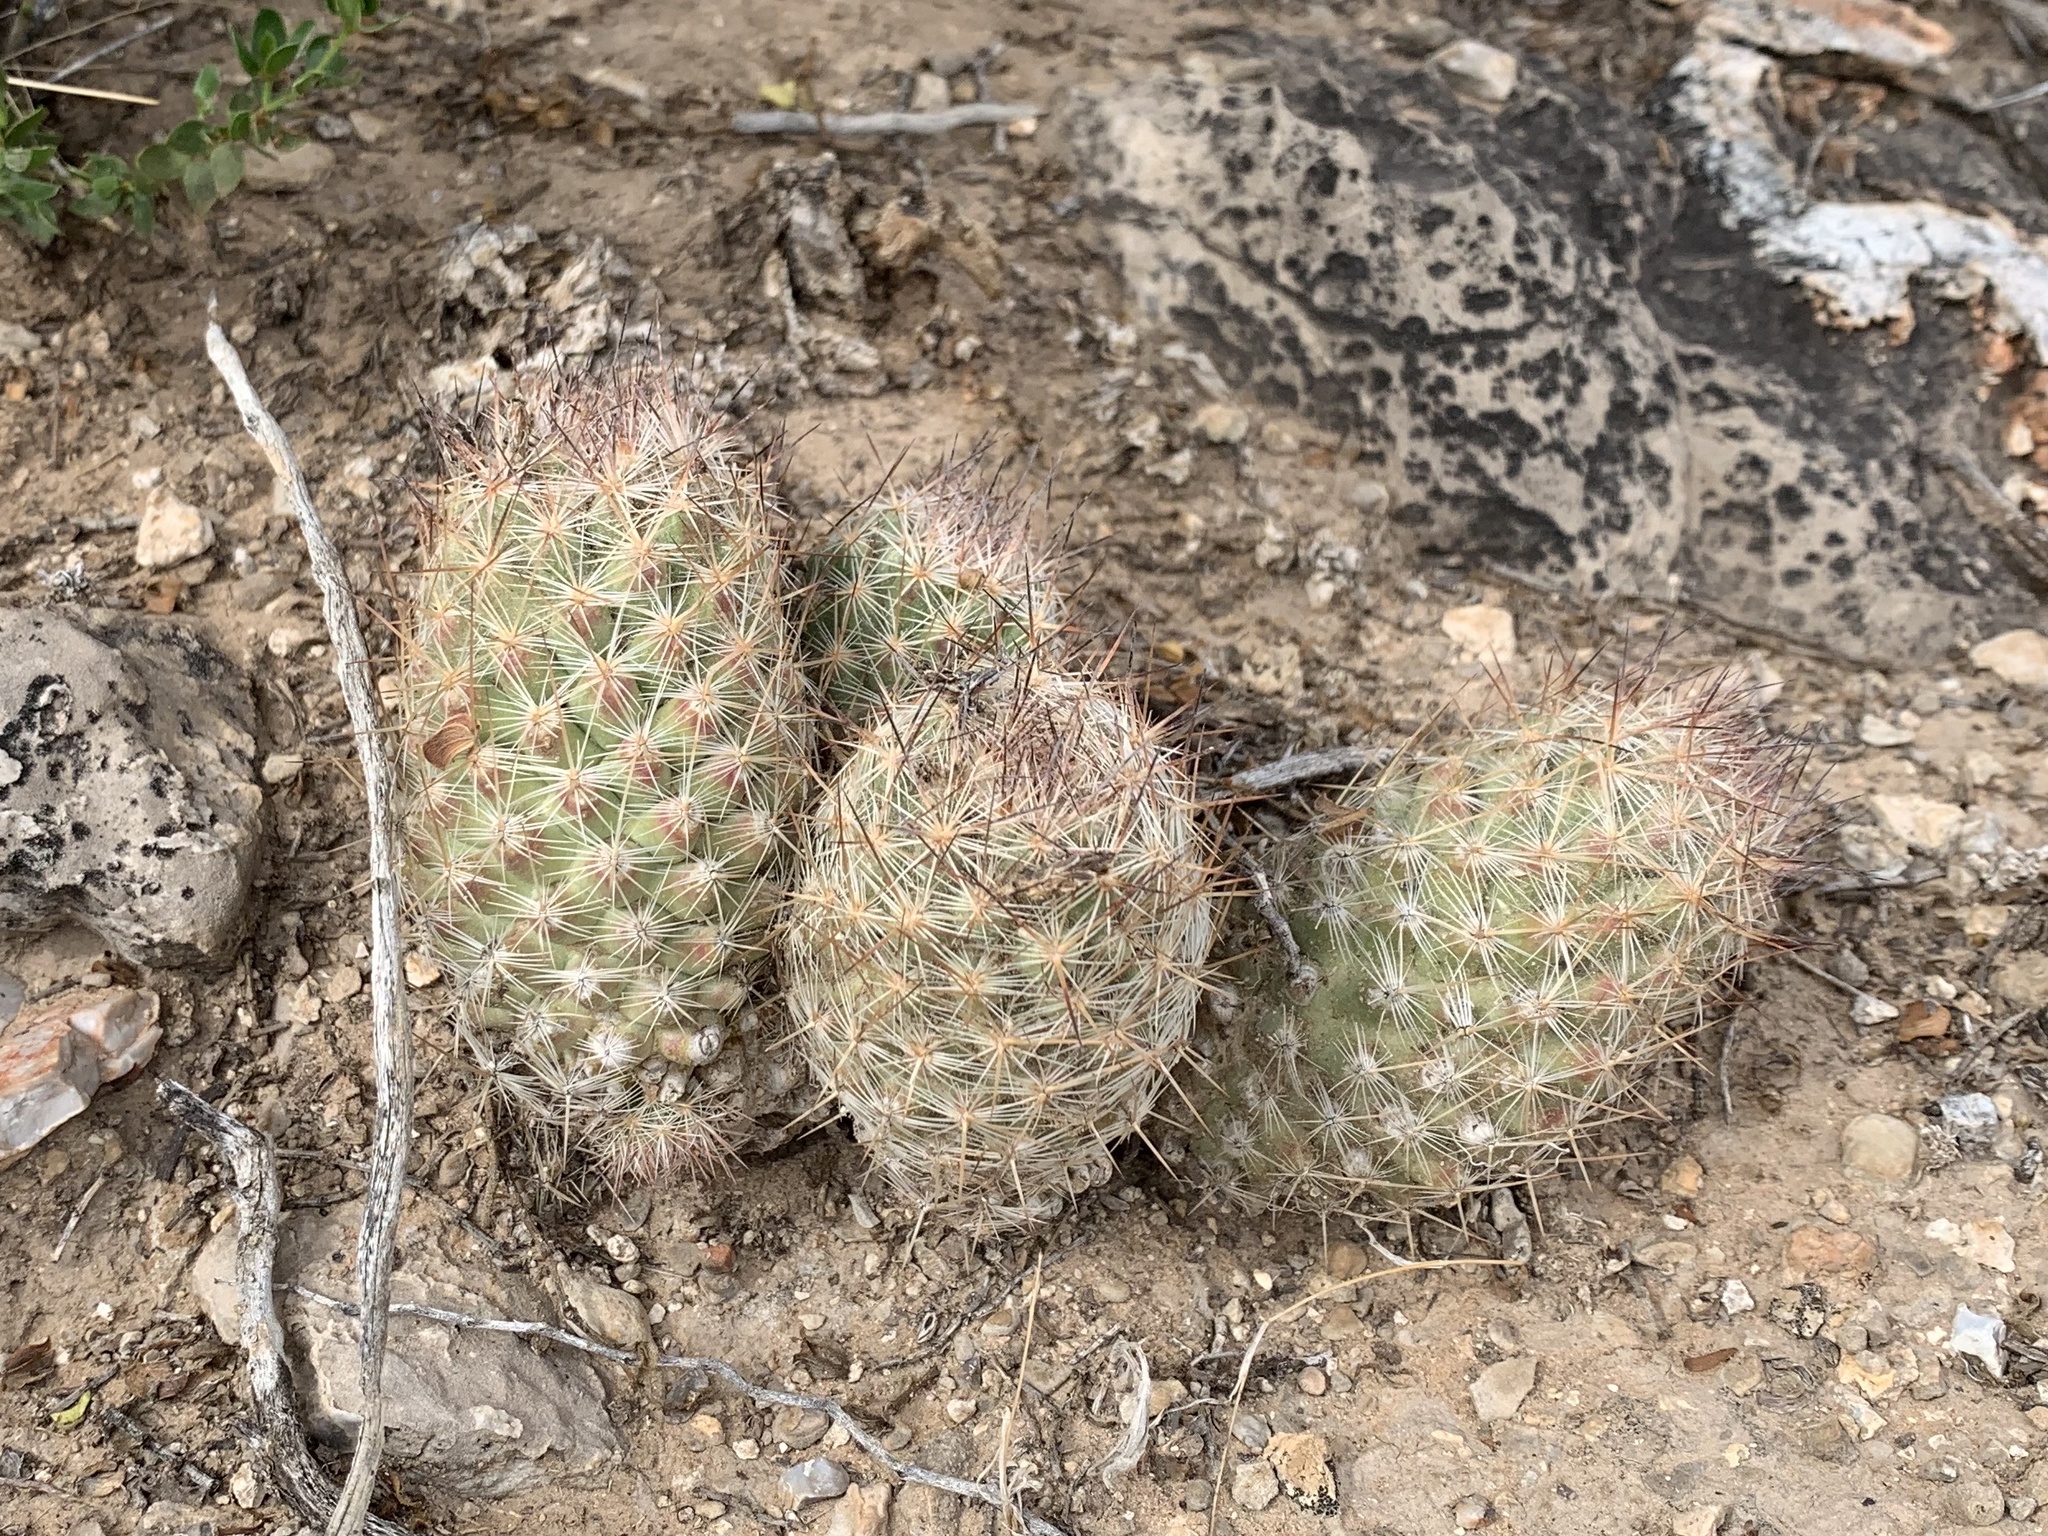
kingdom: Plantae
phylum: Tracheophyta
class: Magnoliopsida
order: Caryophyllales
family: Cactaceae
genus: Pelecyphora
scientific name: Pelecyphora tuberculosa
